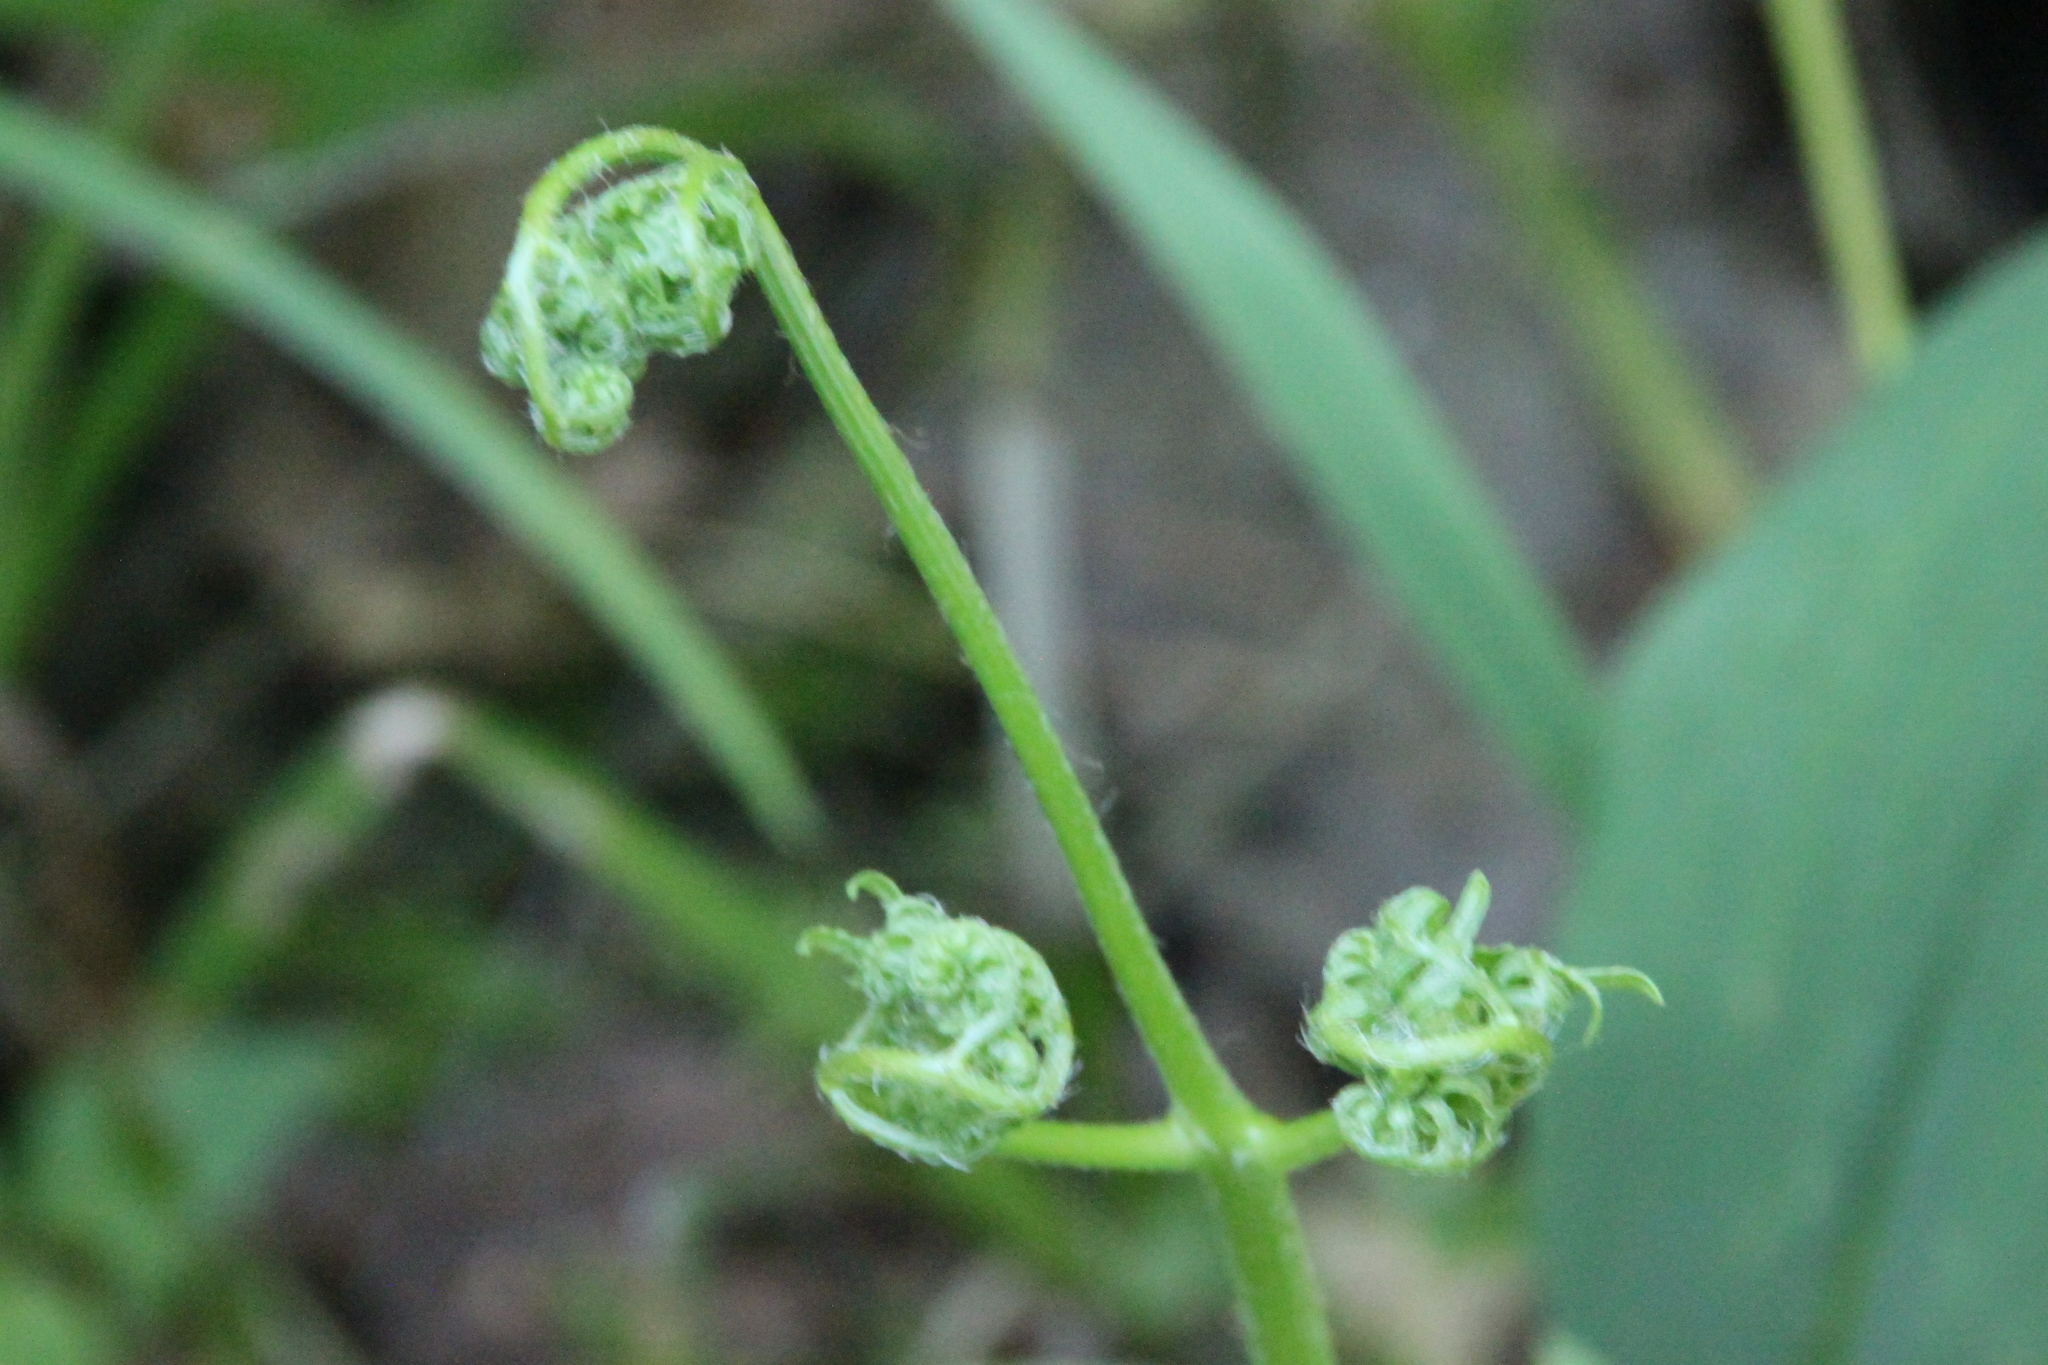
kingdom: Plantae
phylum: Tracheophyta
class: Polypodiopsida
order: Polypodiales
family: Dennstaedtiaceae
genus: Pteridium
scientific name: Pteridium aquilinum
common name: Bracken
